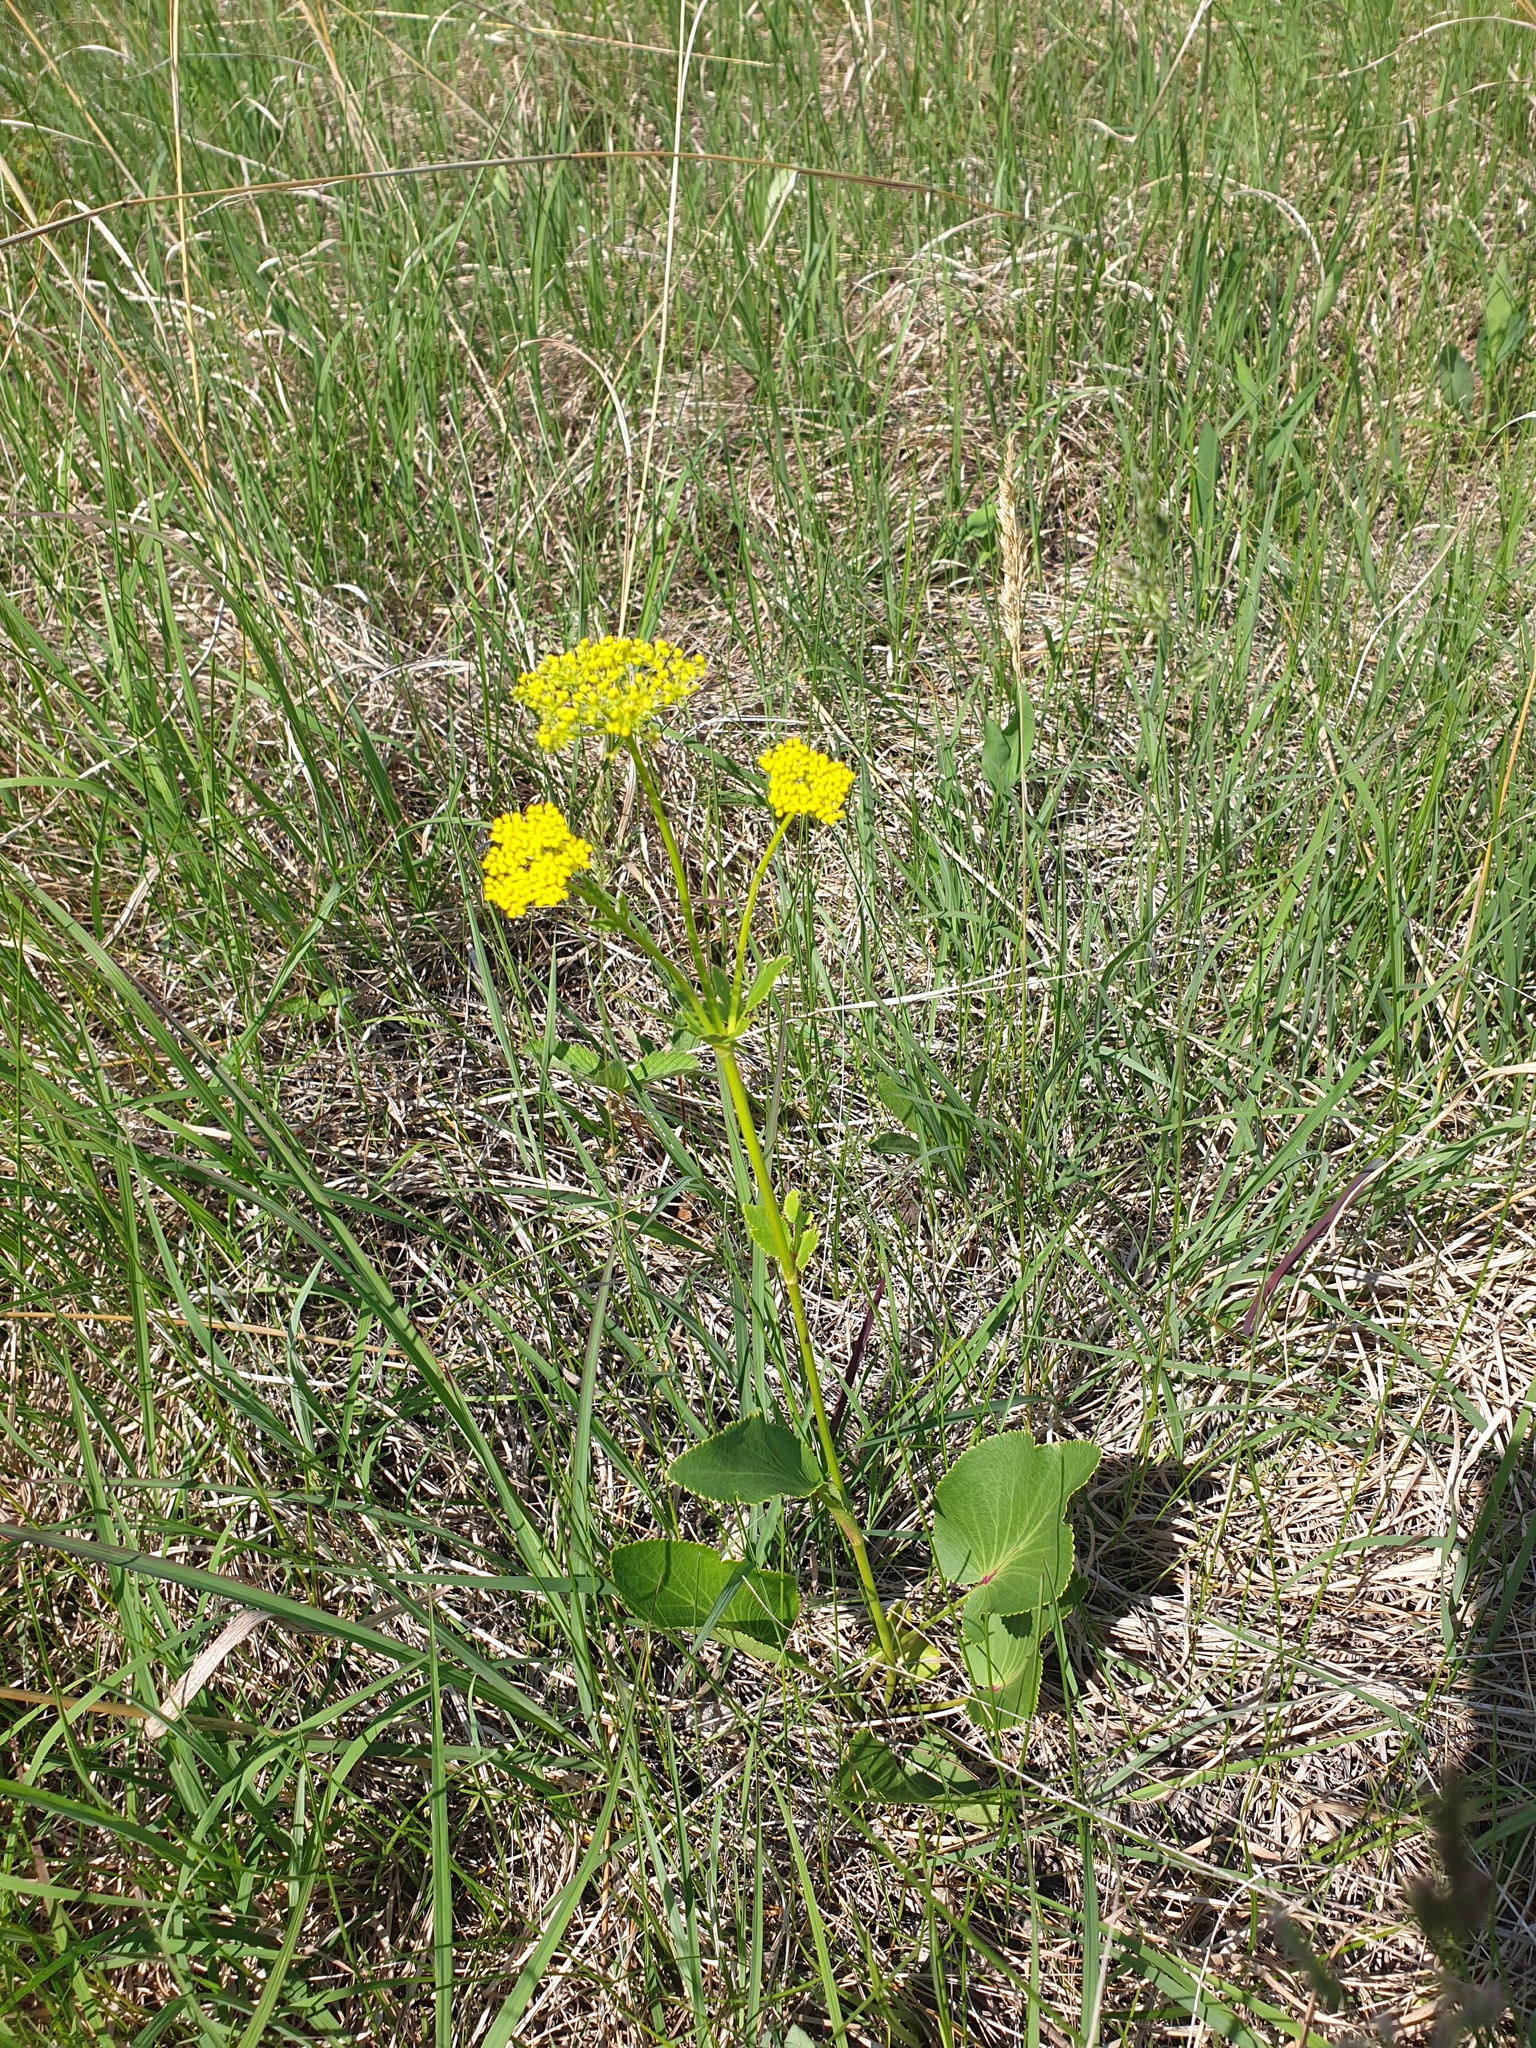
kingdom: Plantae
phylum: Tracheophyta
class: Magnoliopsida
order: Apiales
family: Apiaceae
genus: Zizia
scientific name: Zizia aptera
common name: Heart-leaved alexanders
